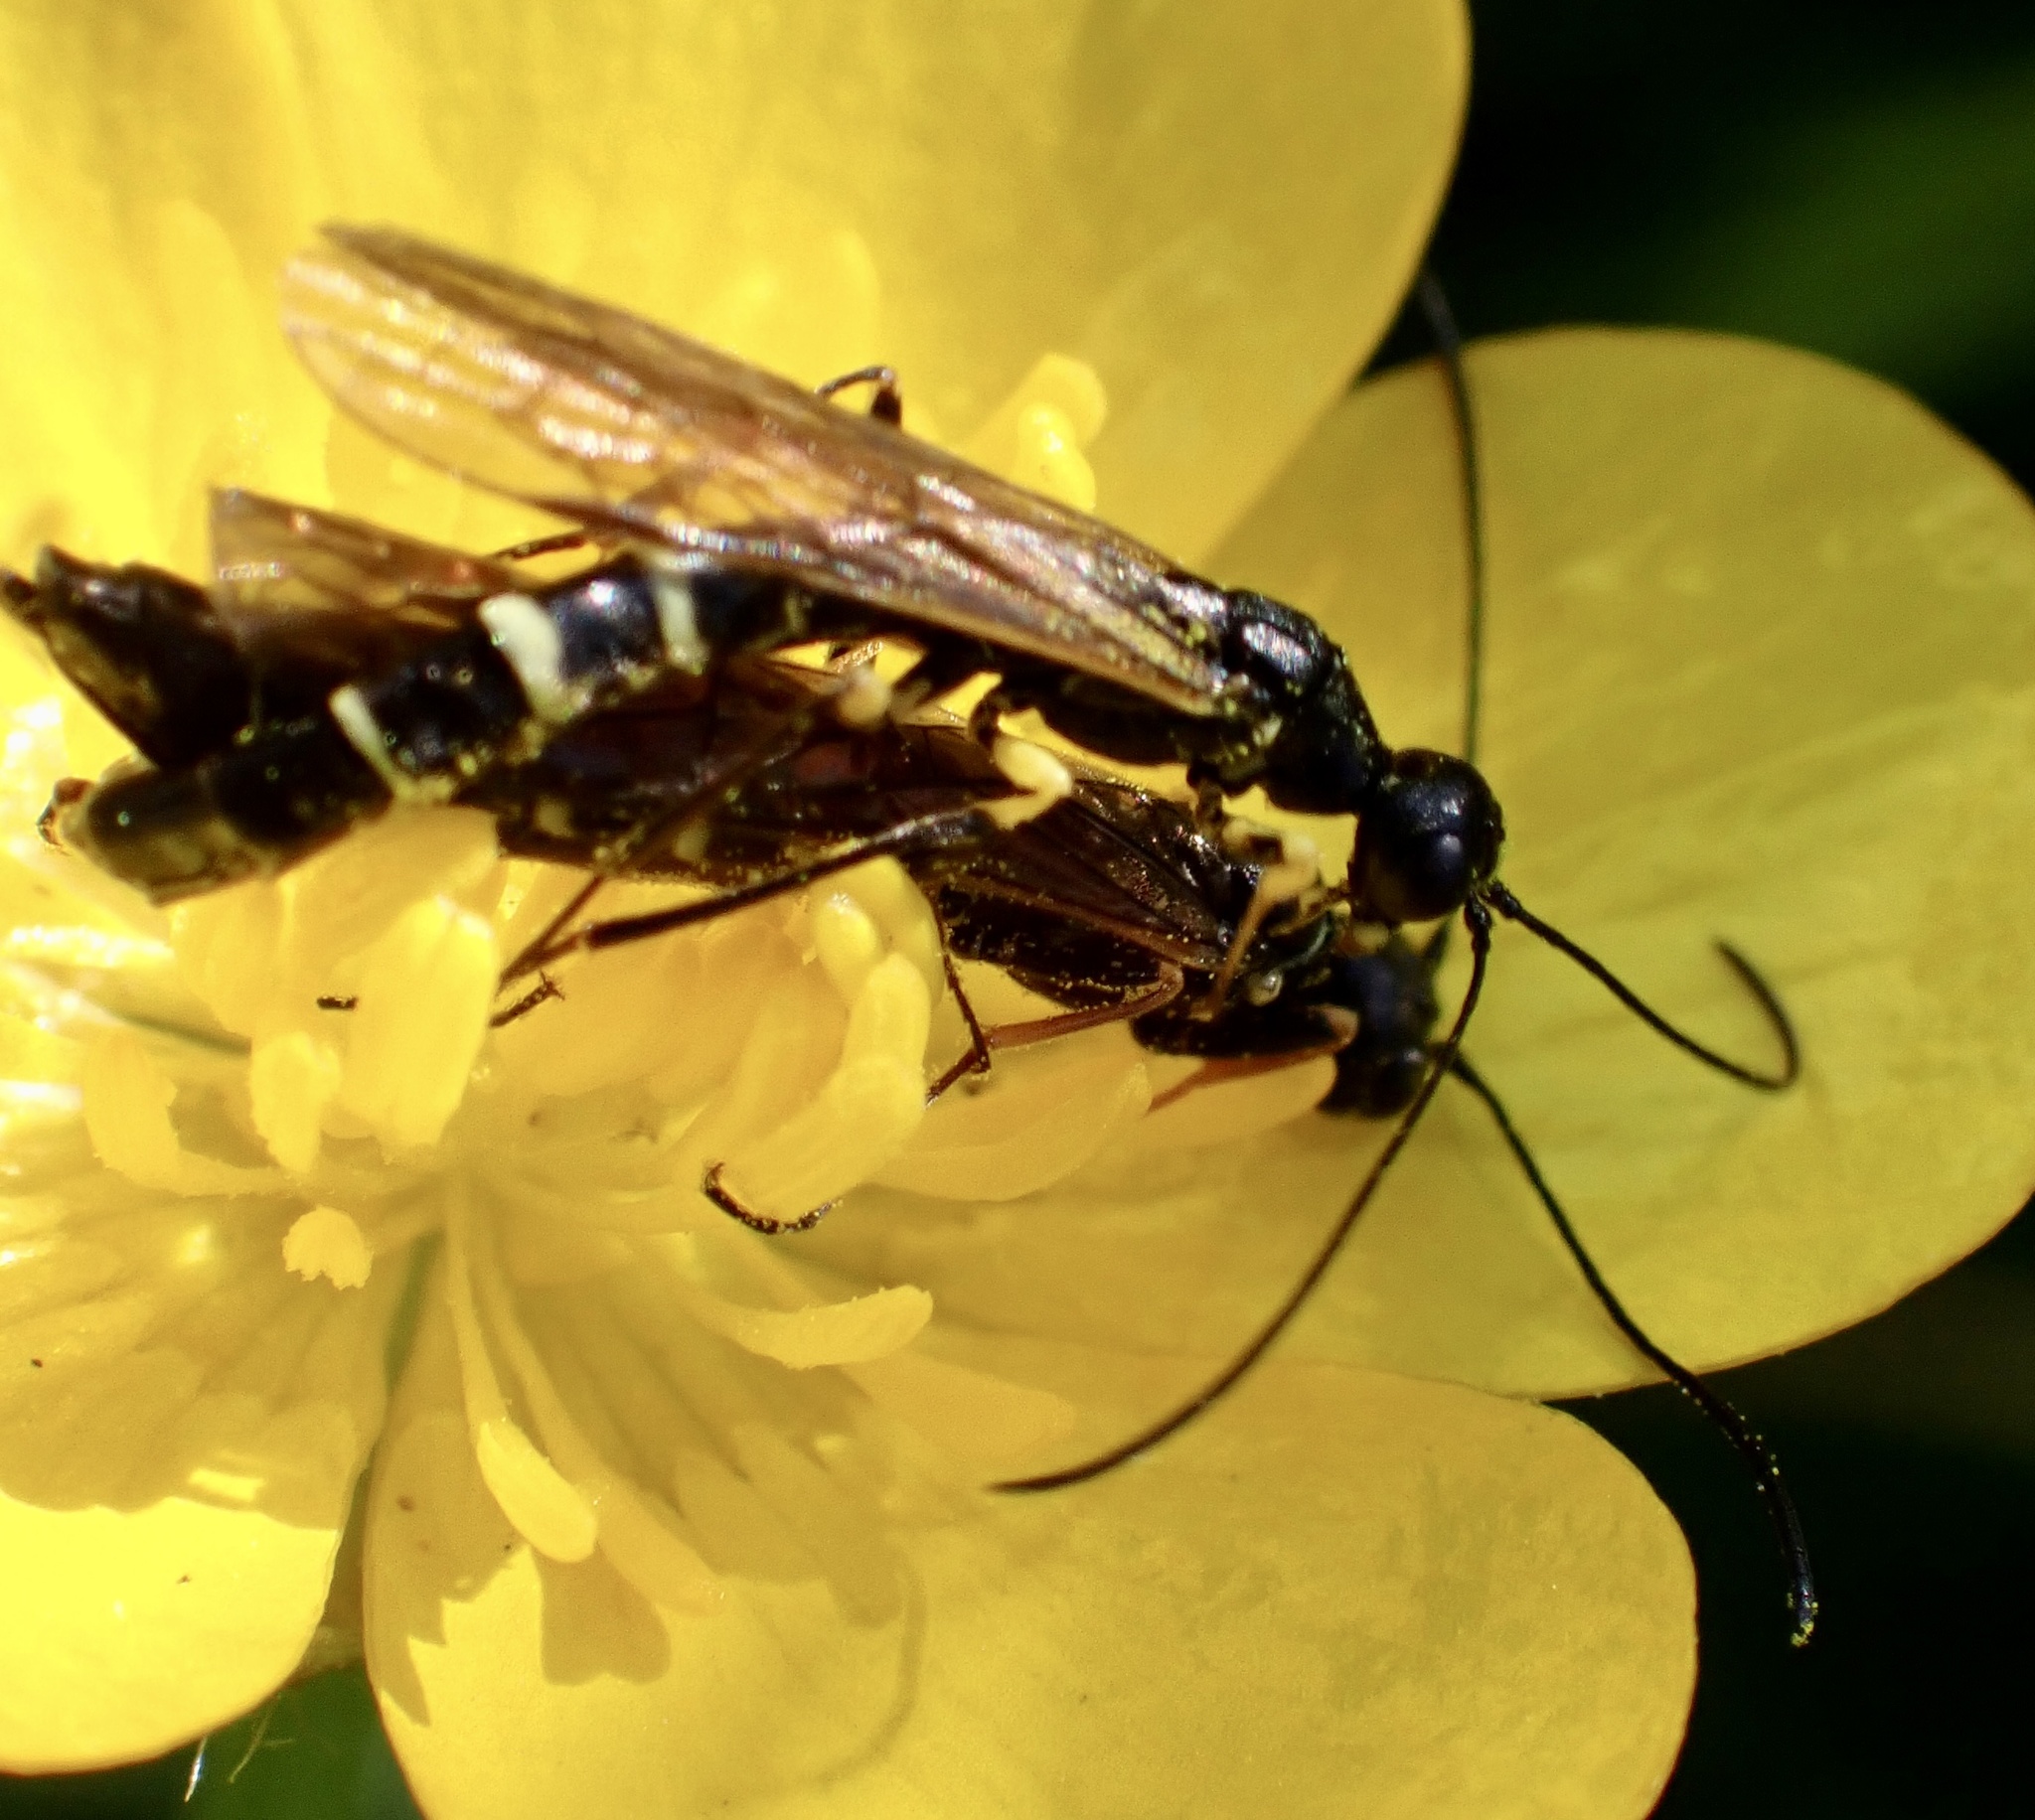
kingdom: Animalia
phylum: Arthropoda
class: Insecta
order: Hymenoptera
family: Cephidae
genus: Calameuta
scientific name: Calameuta filiformis
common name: Reed stem borer
